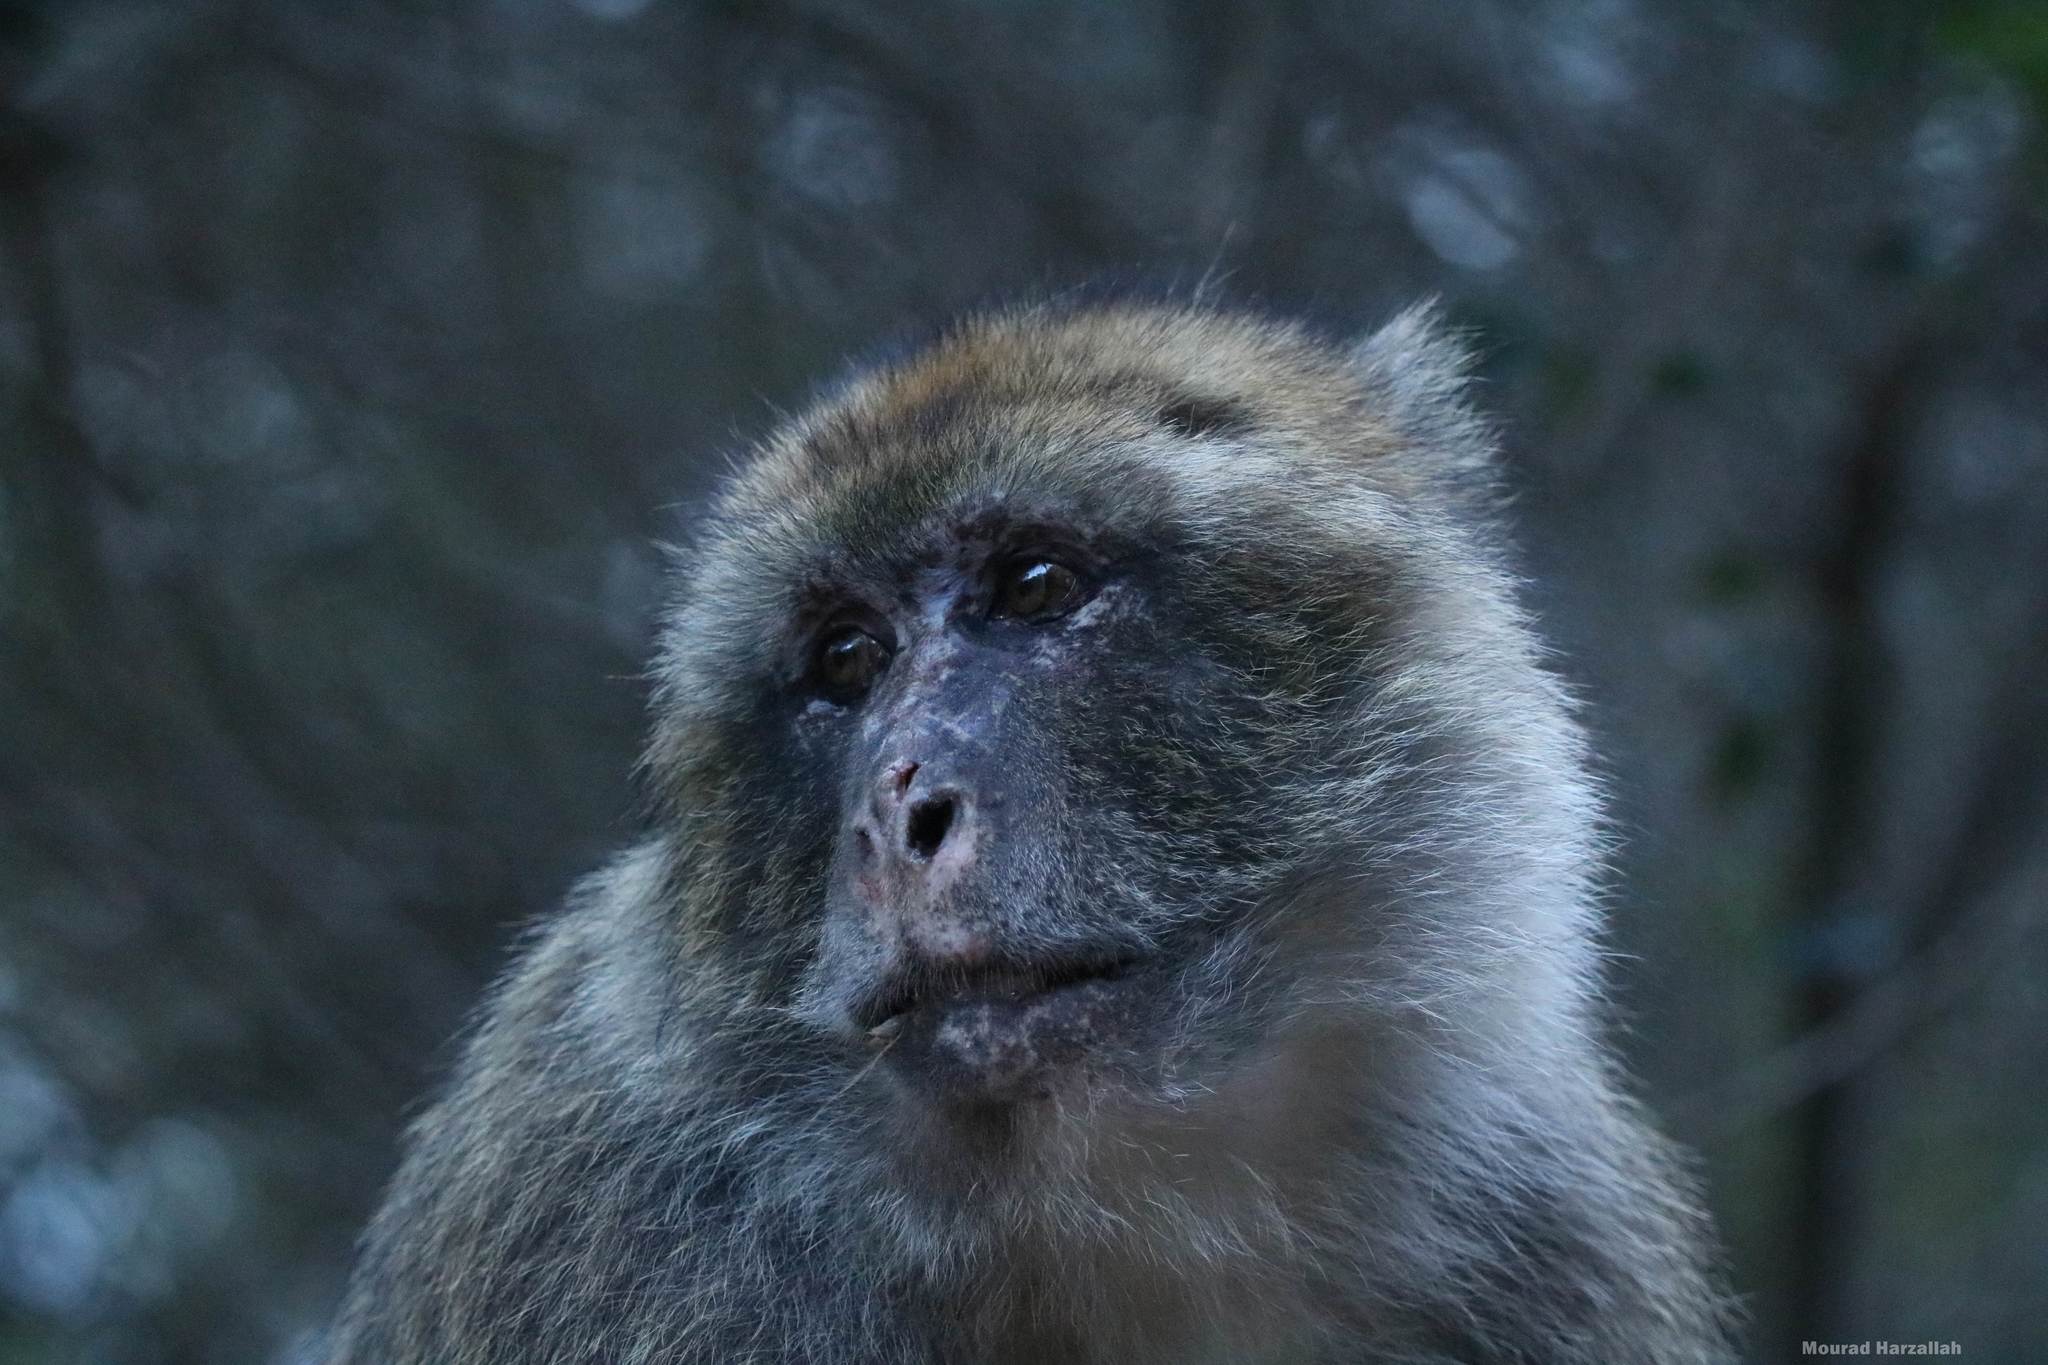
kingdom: Animalia
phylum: Chordata
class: Mammalia
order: Primates
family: Cercopithecidae
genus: Macaca
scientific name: Macaca sylvanus
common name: Barbary macaque
